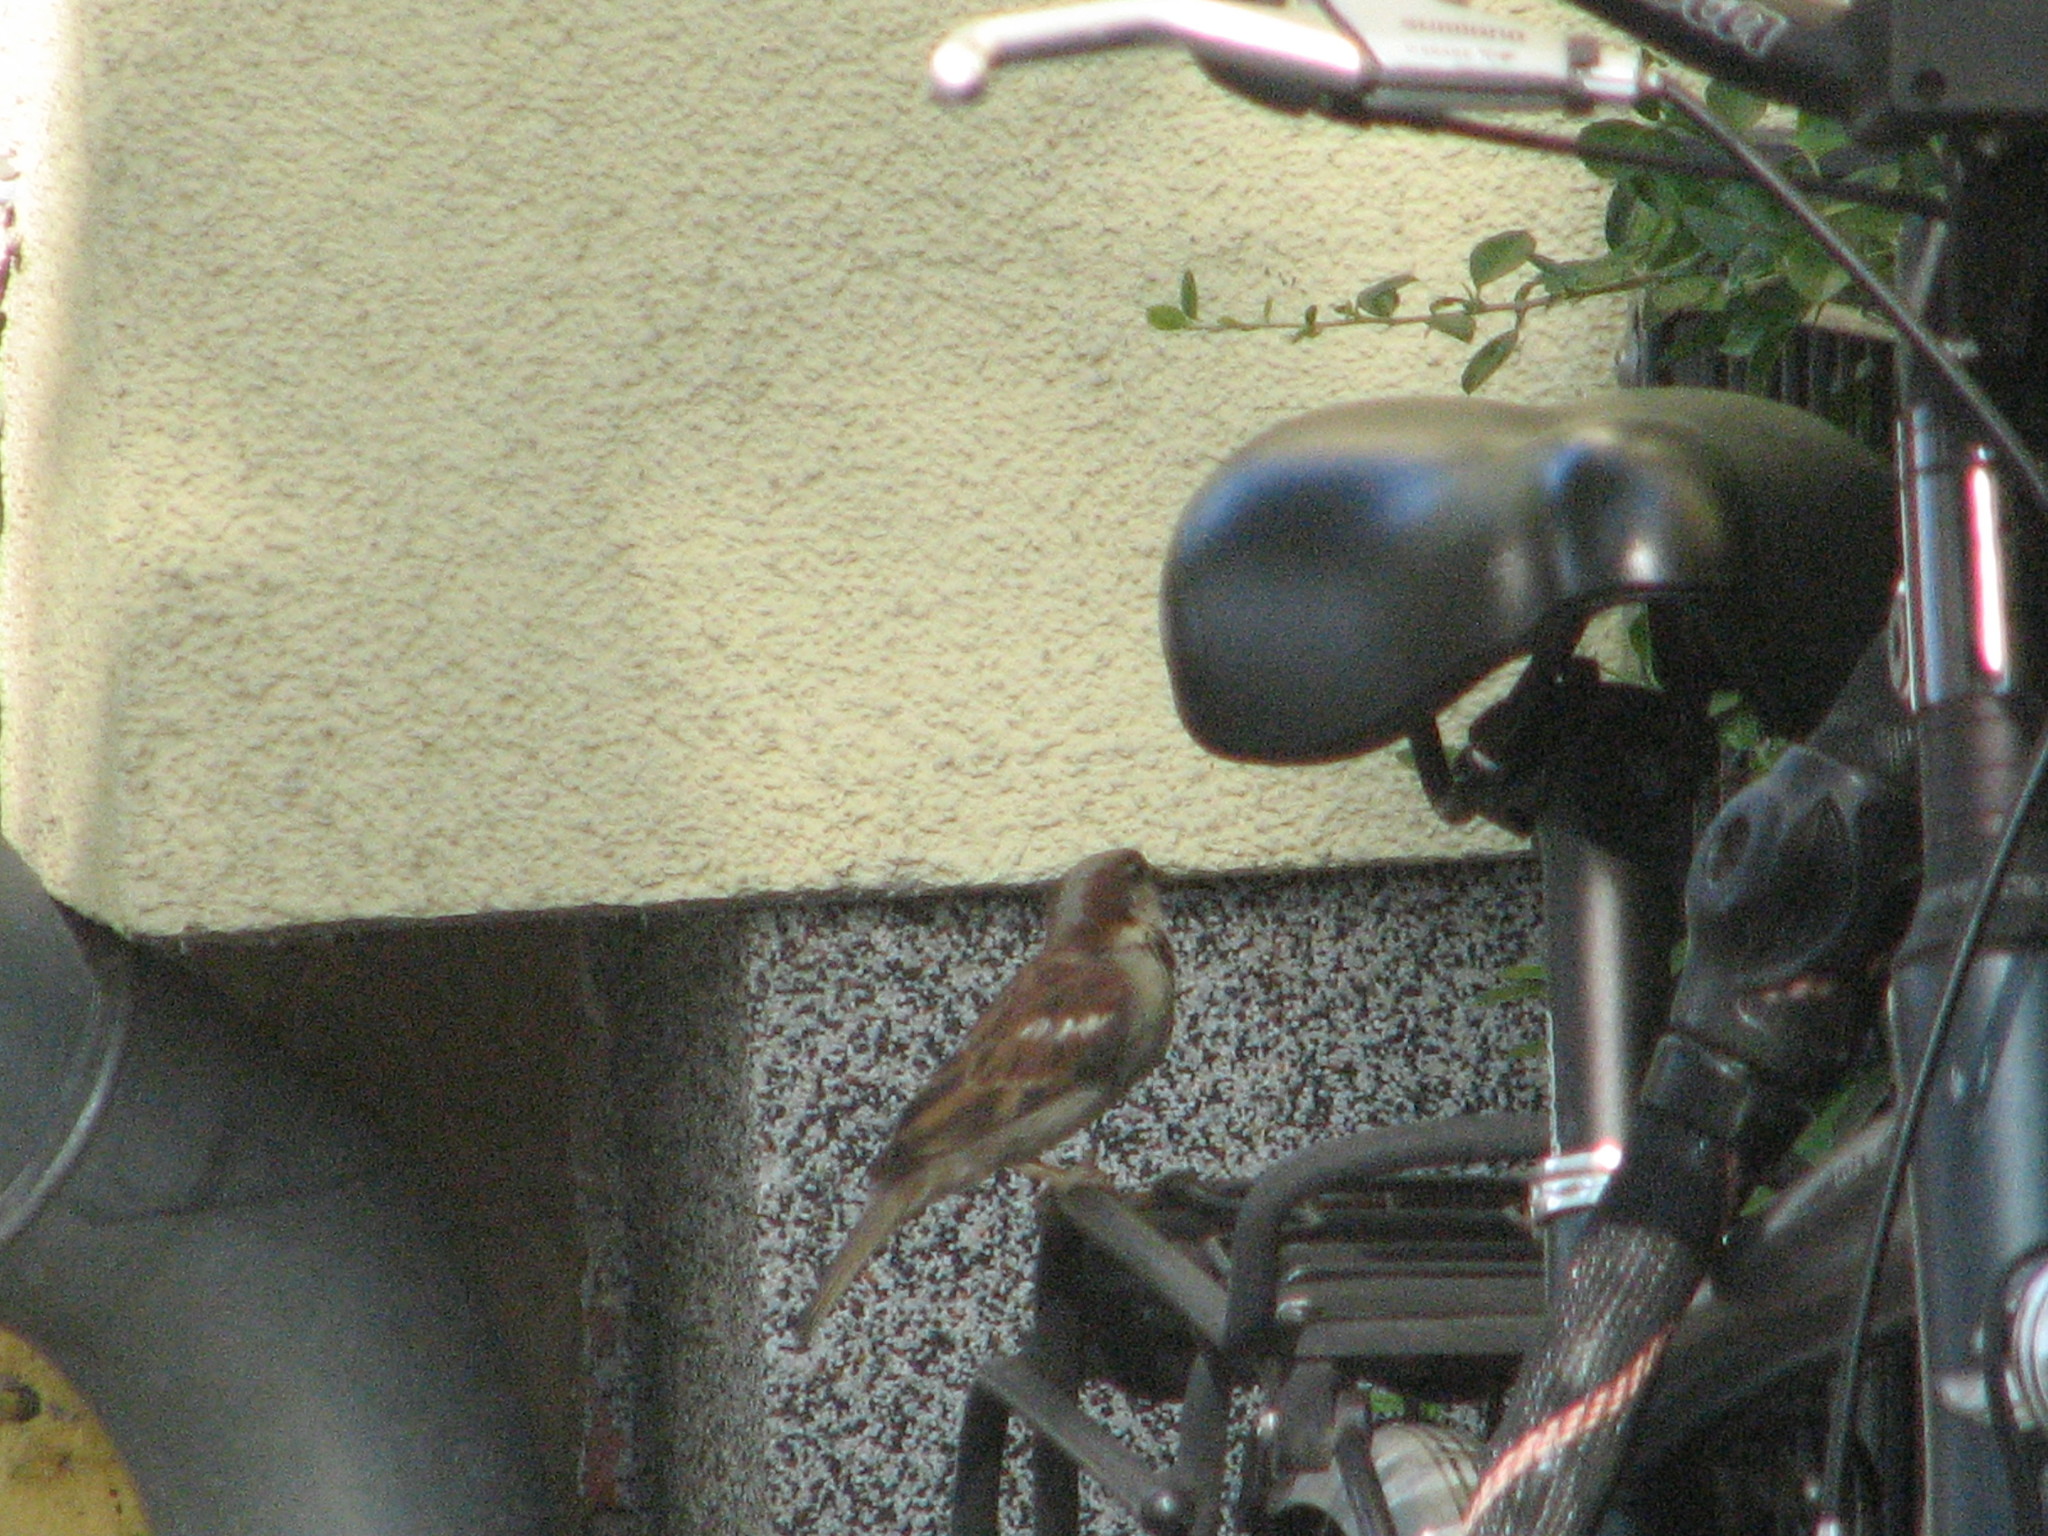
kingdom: Animalia
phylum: Chordata
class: Aves
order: Passeriformes
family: Passeridae
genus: Passer
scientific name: Passer domesticus
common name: House sparrow
